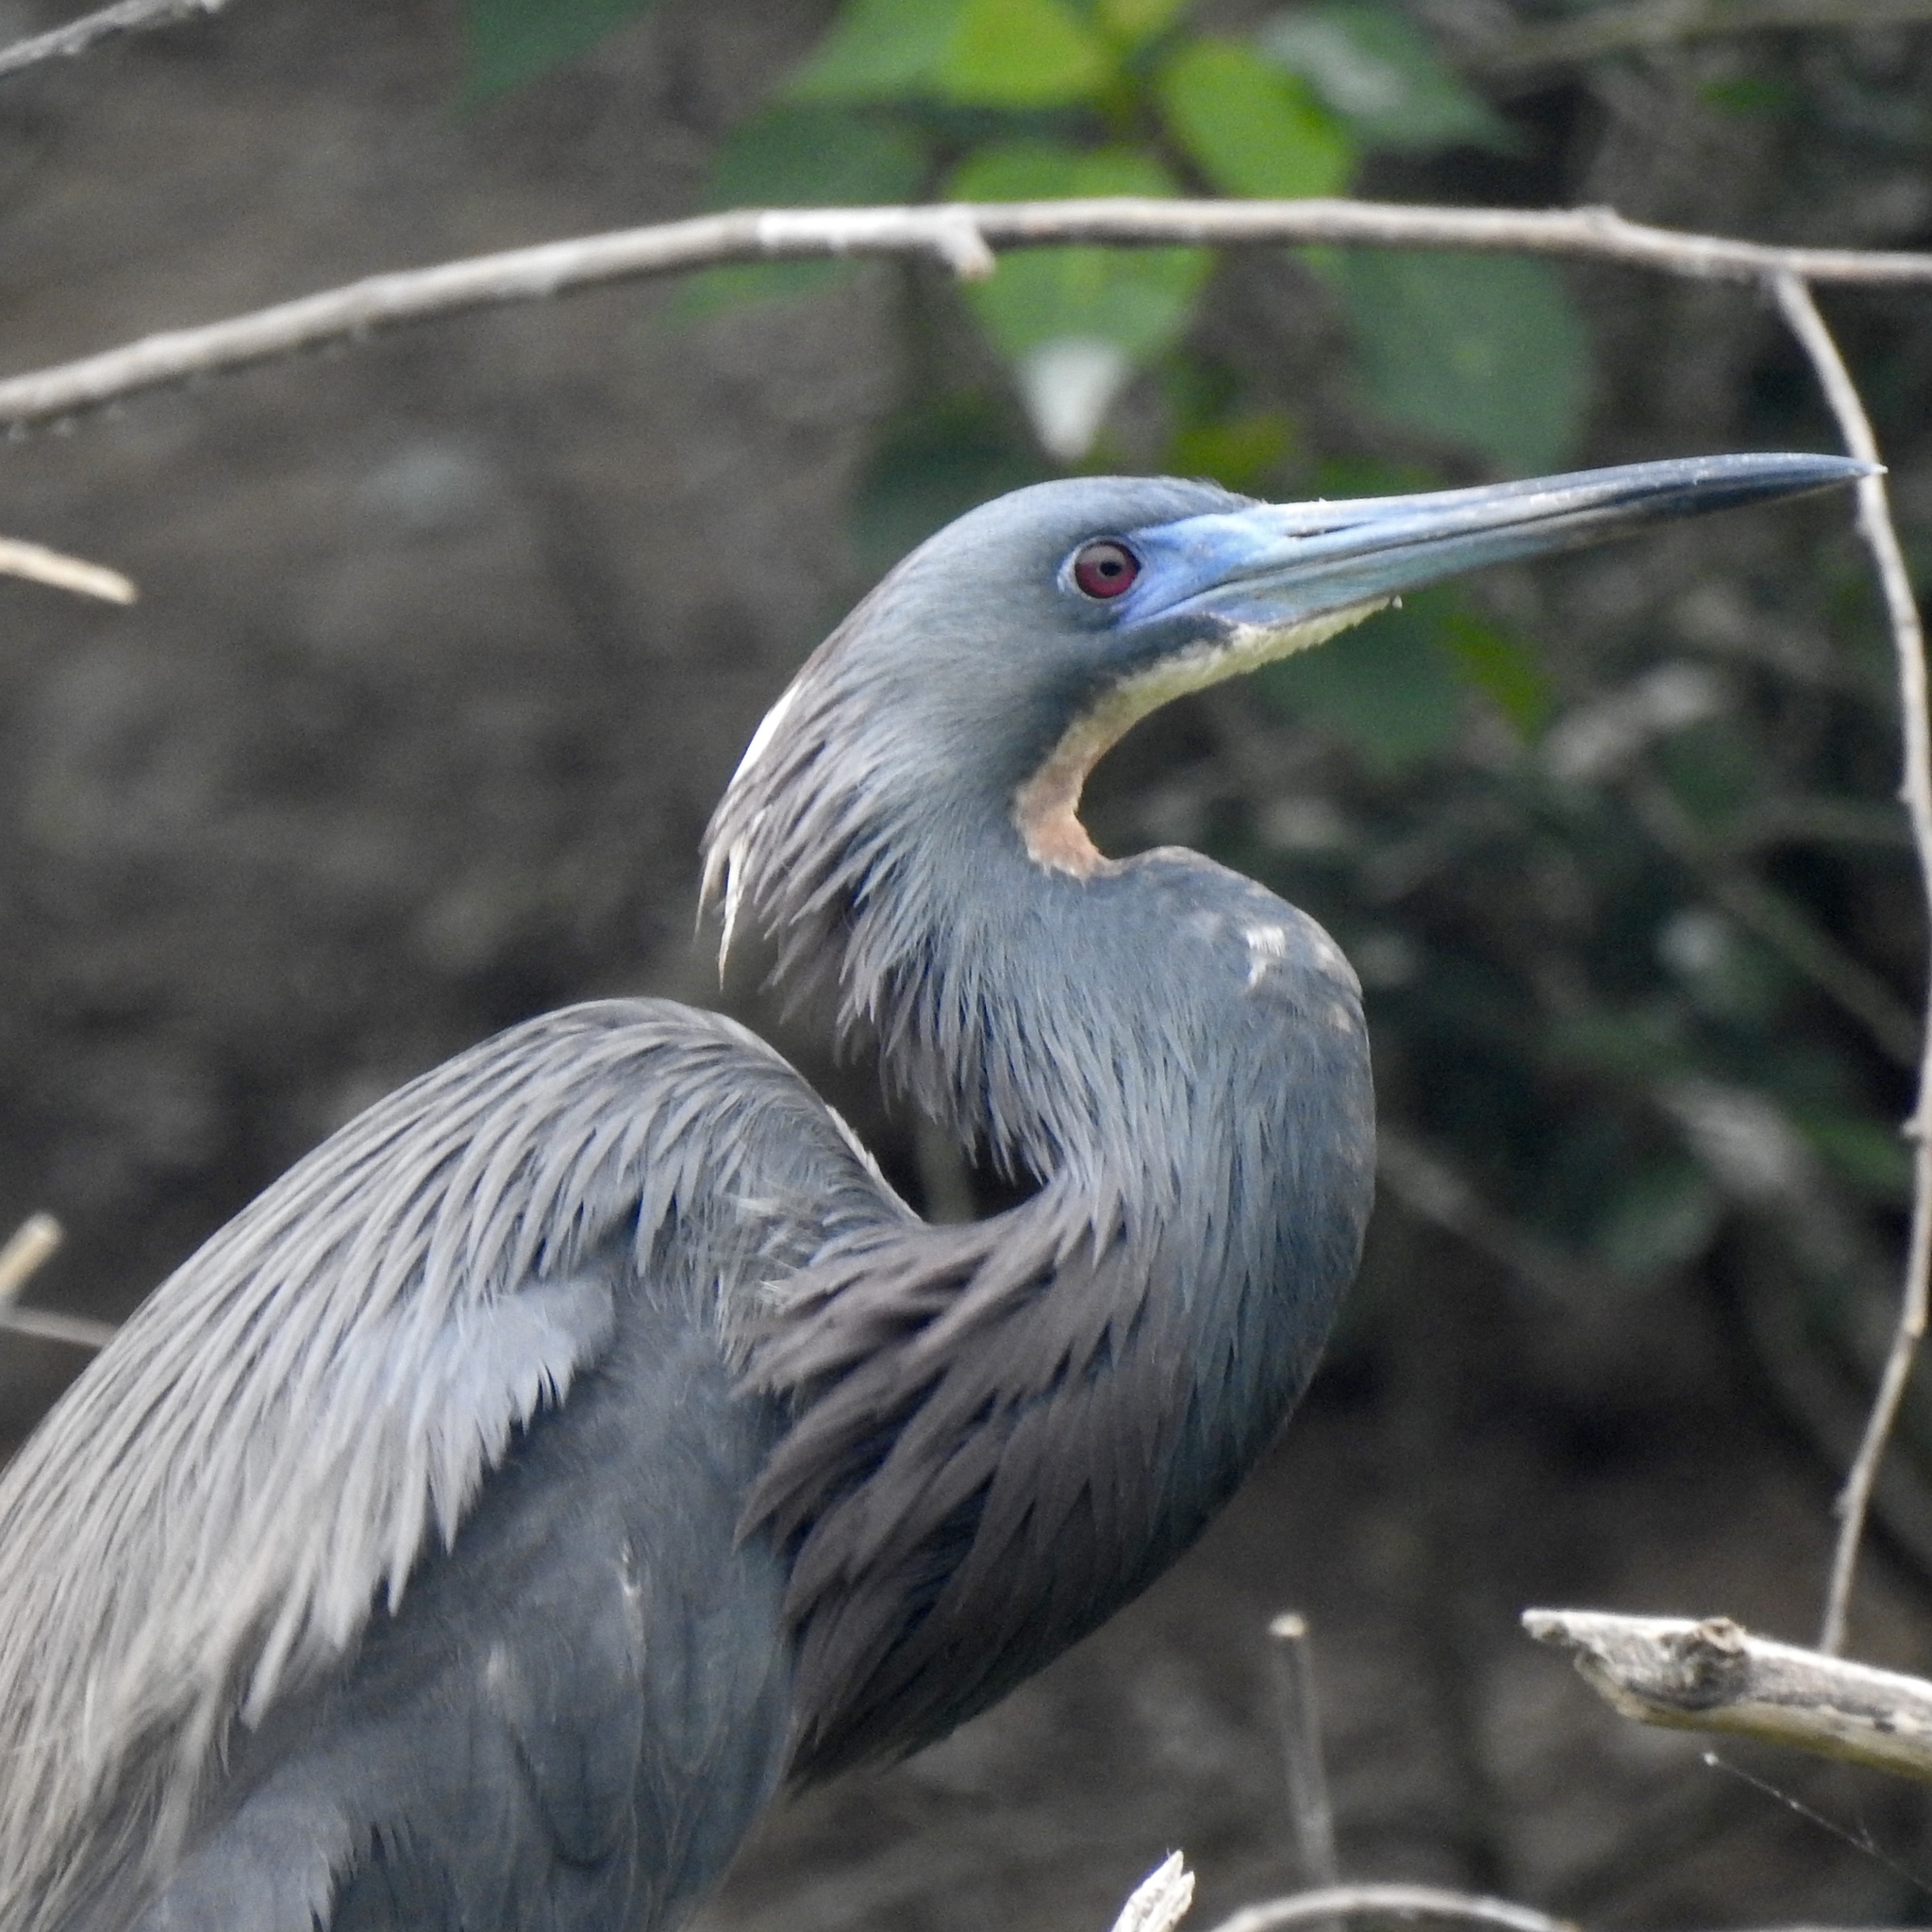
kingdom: Animalia
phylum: Chordata
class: Aves
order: Pelecaniformes
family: Ardeidae
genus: Egretta
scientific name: Egretta tricolor
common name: Tricolored heron
